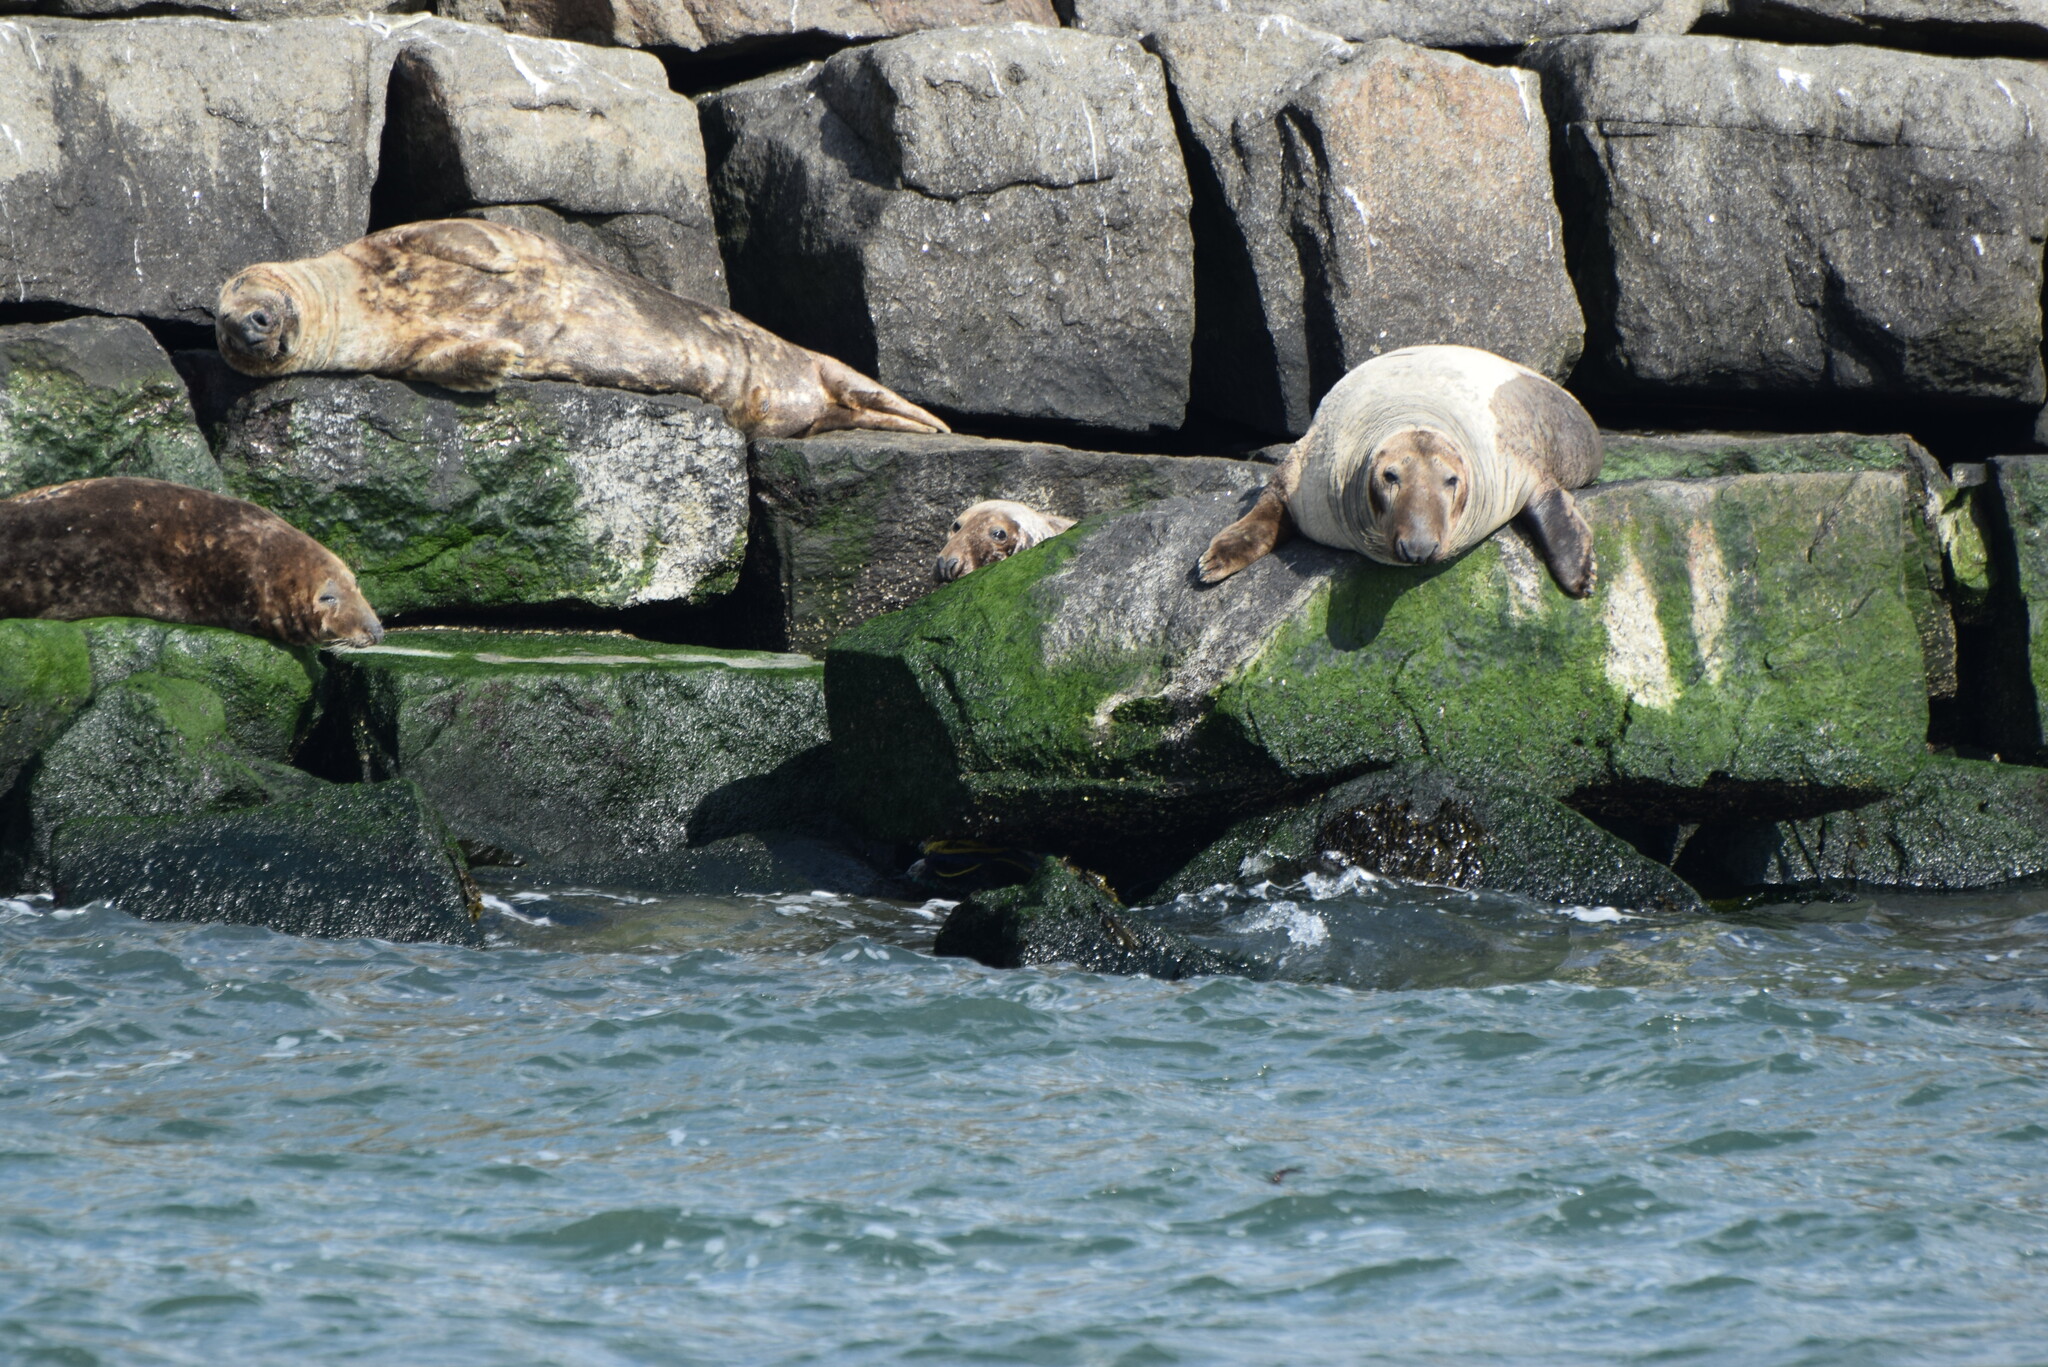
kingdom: Animalia
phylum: Chordata
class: Mammalia
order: Carnivora
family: Phocidae
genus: Halichoerus
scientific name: Halichoerus grypus
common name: Grey seal
